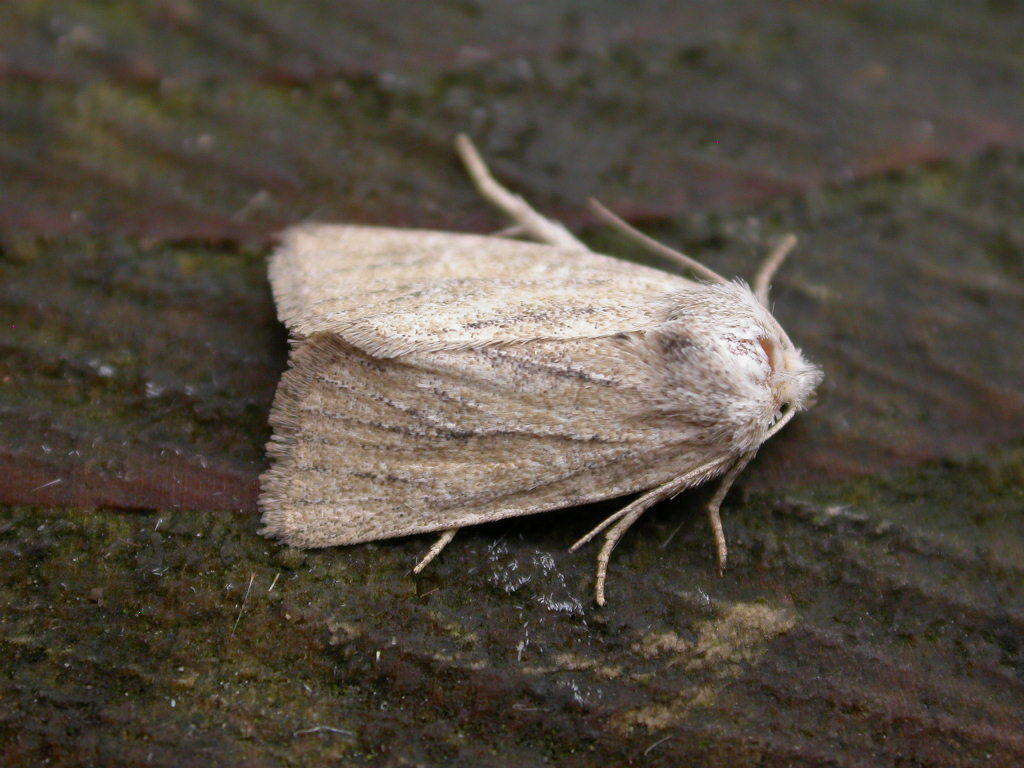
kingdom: Animalia
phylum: Arthropoda
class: Insecta
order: Lepidoptera
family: Noctuidae
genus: Photedes
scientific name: Photedes fluxa
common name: Mere wainscot
